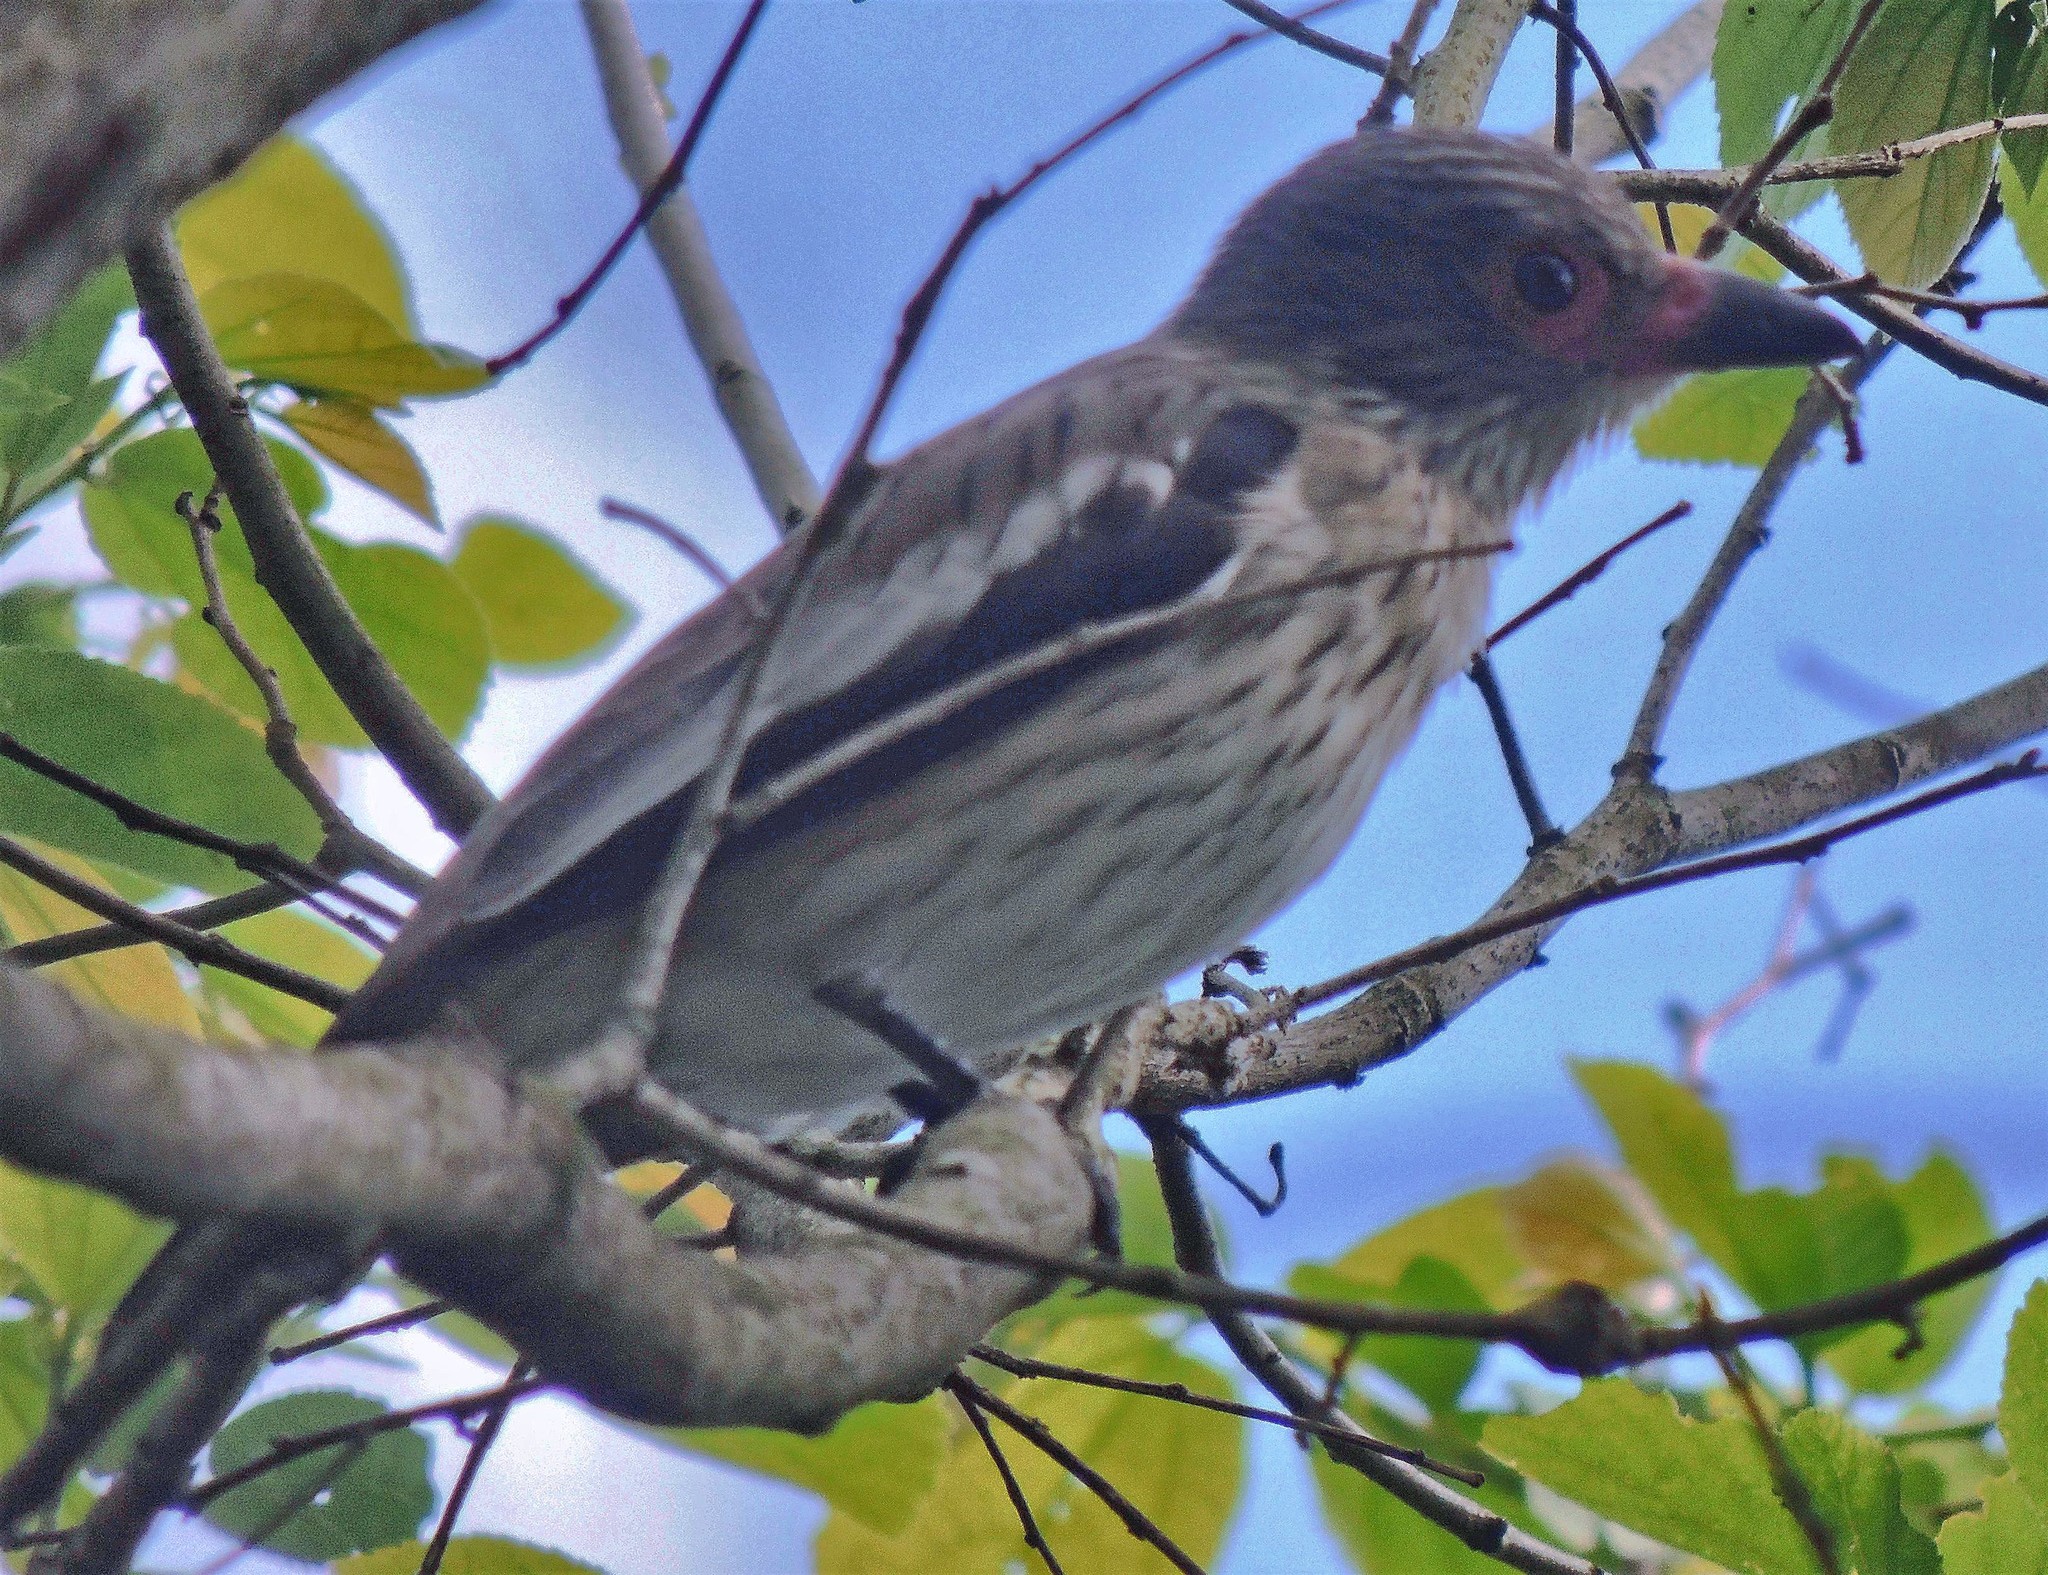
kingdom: Animalia
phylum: Chordata
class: Aves
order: Passeriformes
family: Cotingidae
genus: Tityra
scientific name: Tityra cayana
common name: Black-tailed tityra
